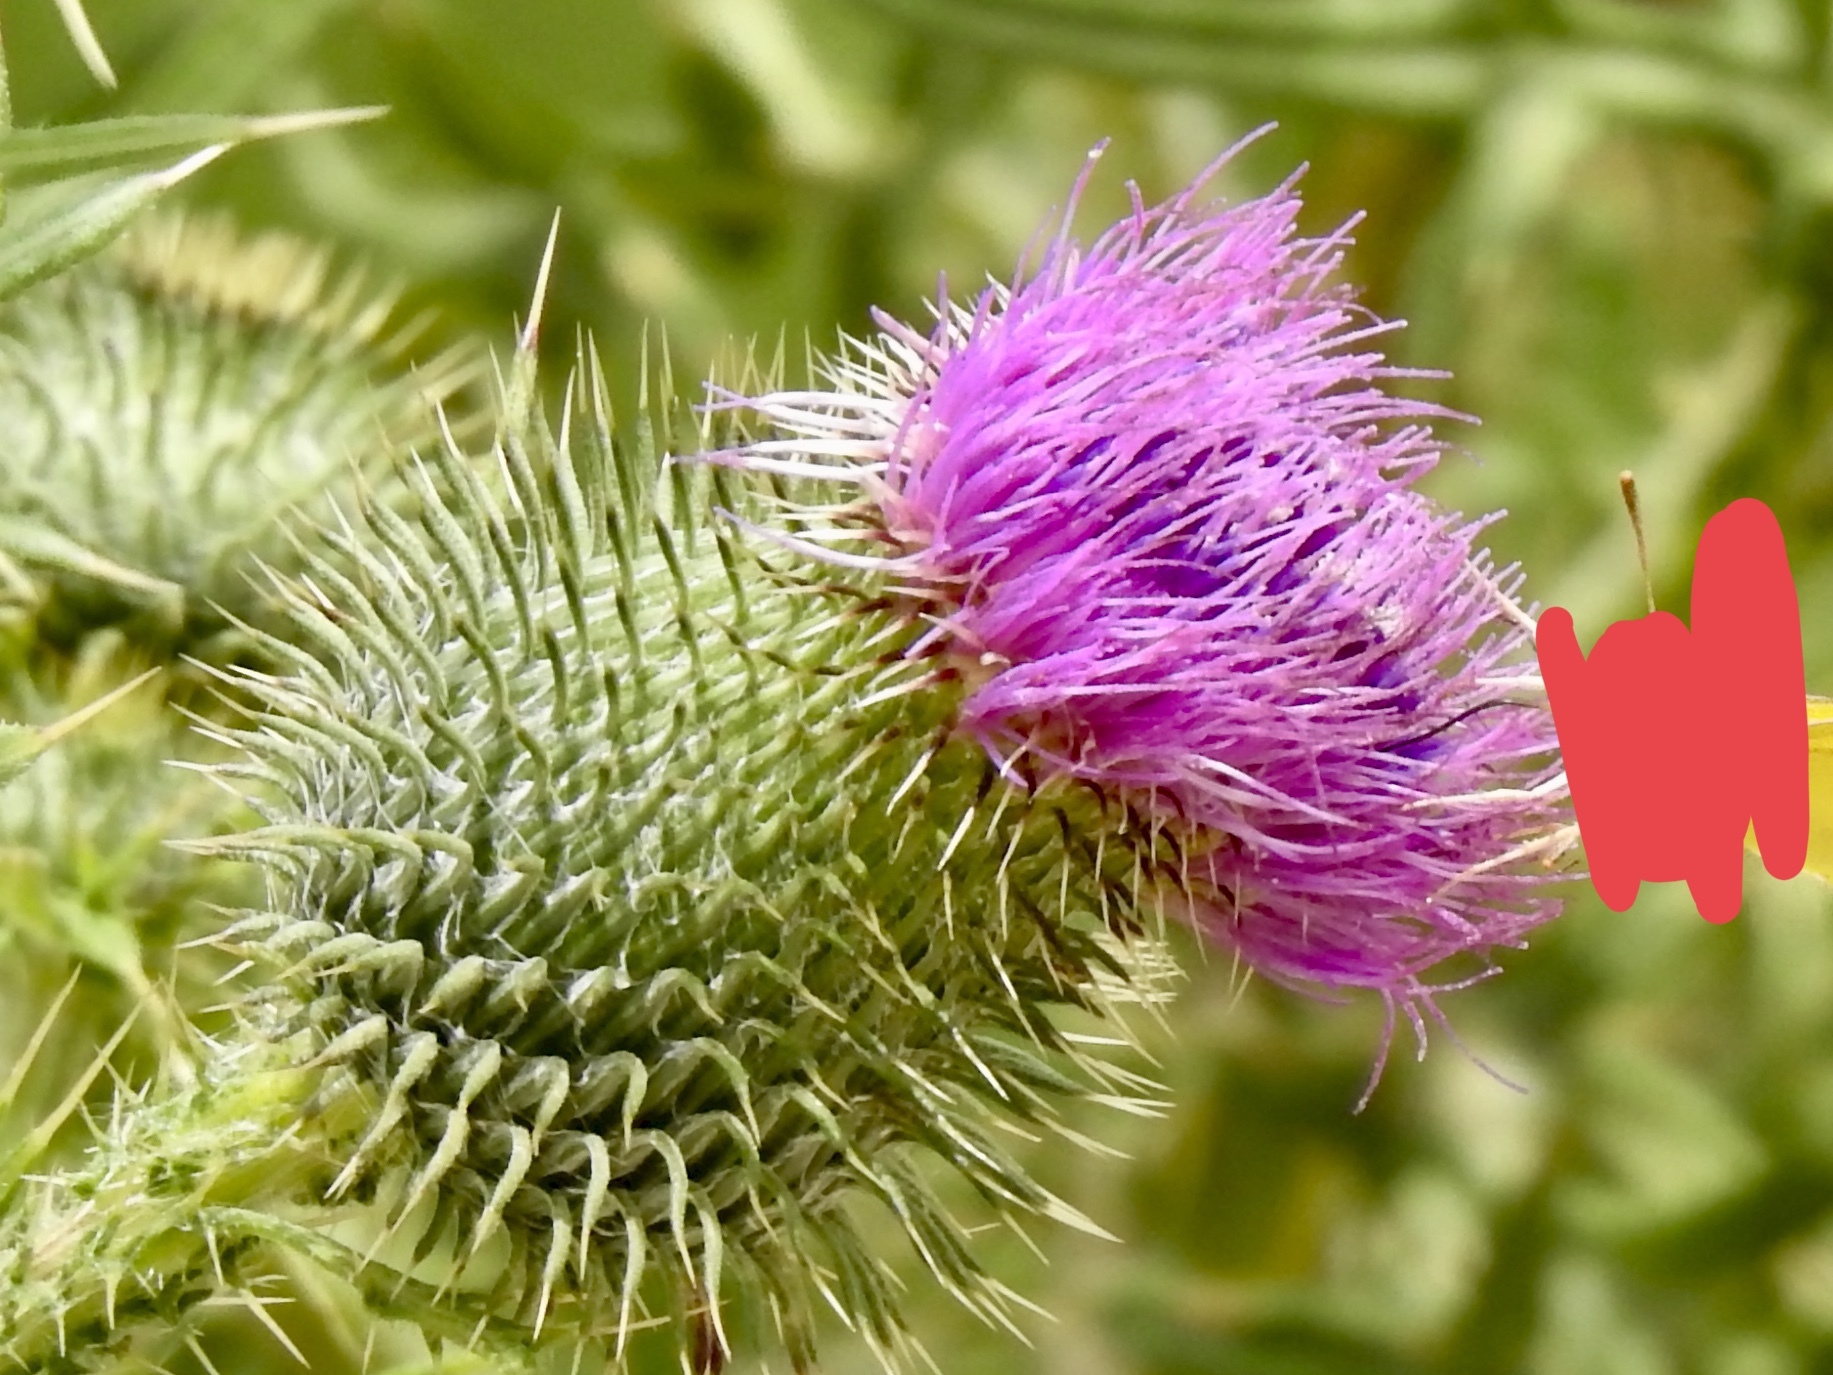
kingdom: Plantae
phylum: Tracheophyta
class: Magnoliopsida
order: Asterales
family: Asteraceae
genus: Cirsium
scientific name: Cirsium vulgare
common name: Bull thistle
